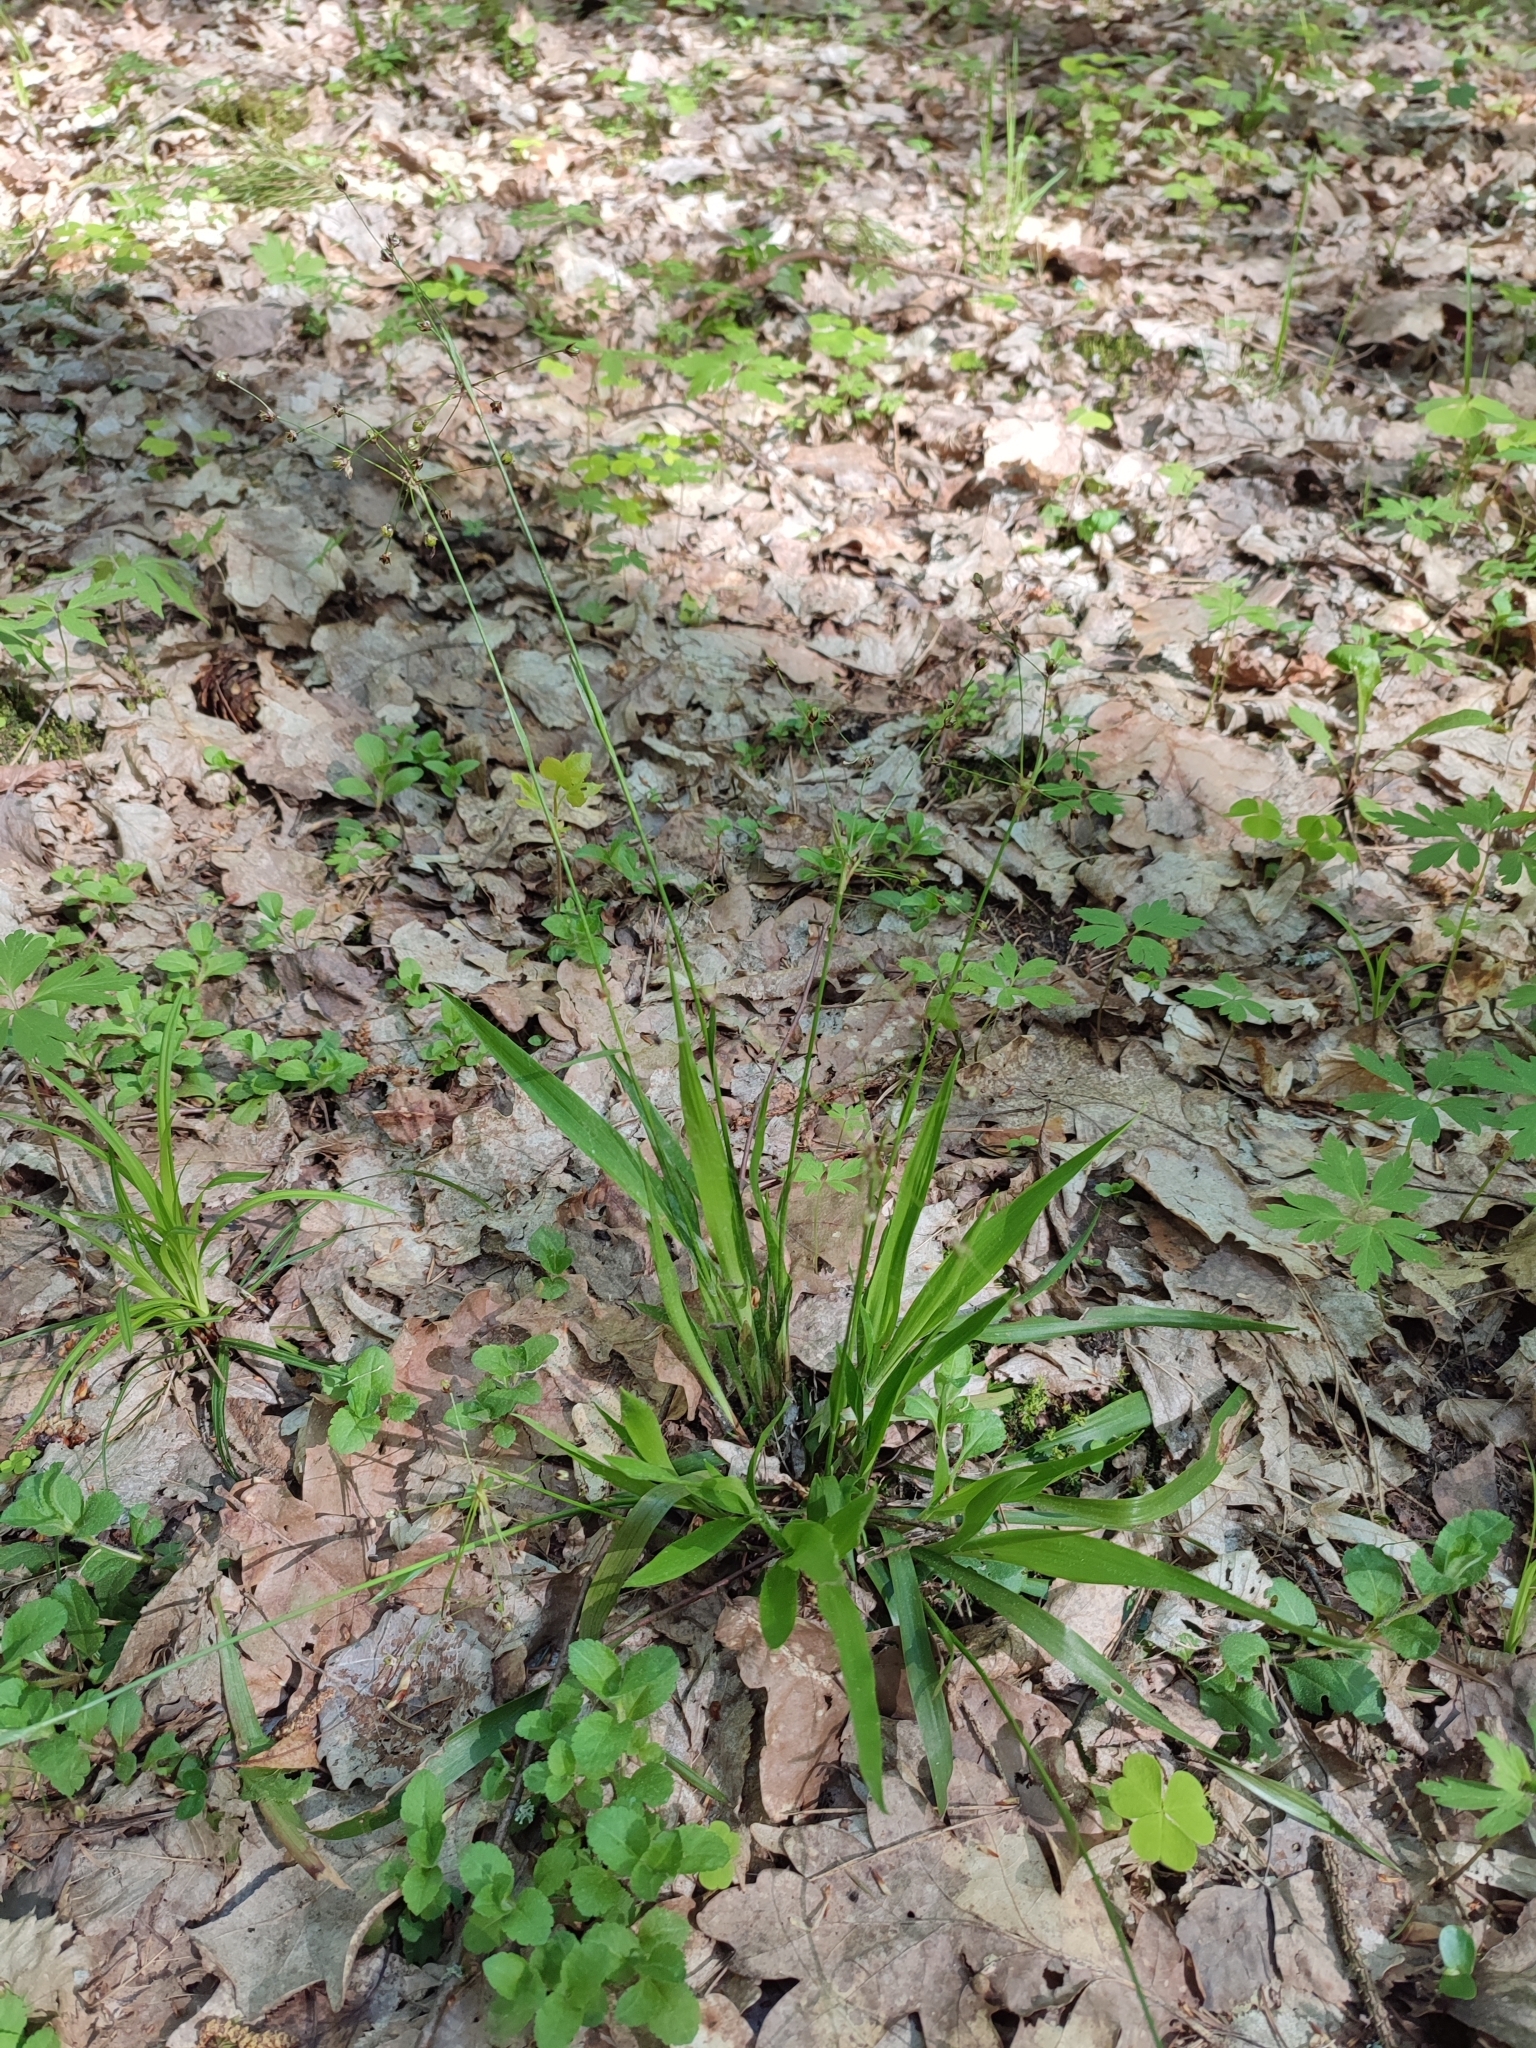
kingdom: Plantae
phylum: Tracheophyta
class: Liliopsida
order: Poales
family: Juncaceae
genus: Luzula
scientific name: Luzula pilosa
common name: Hairy wood-rush
